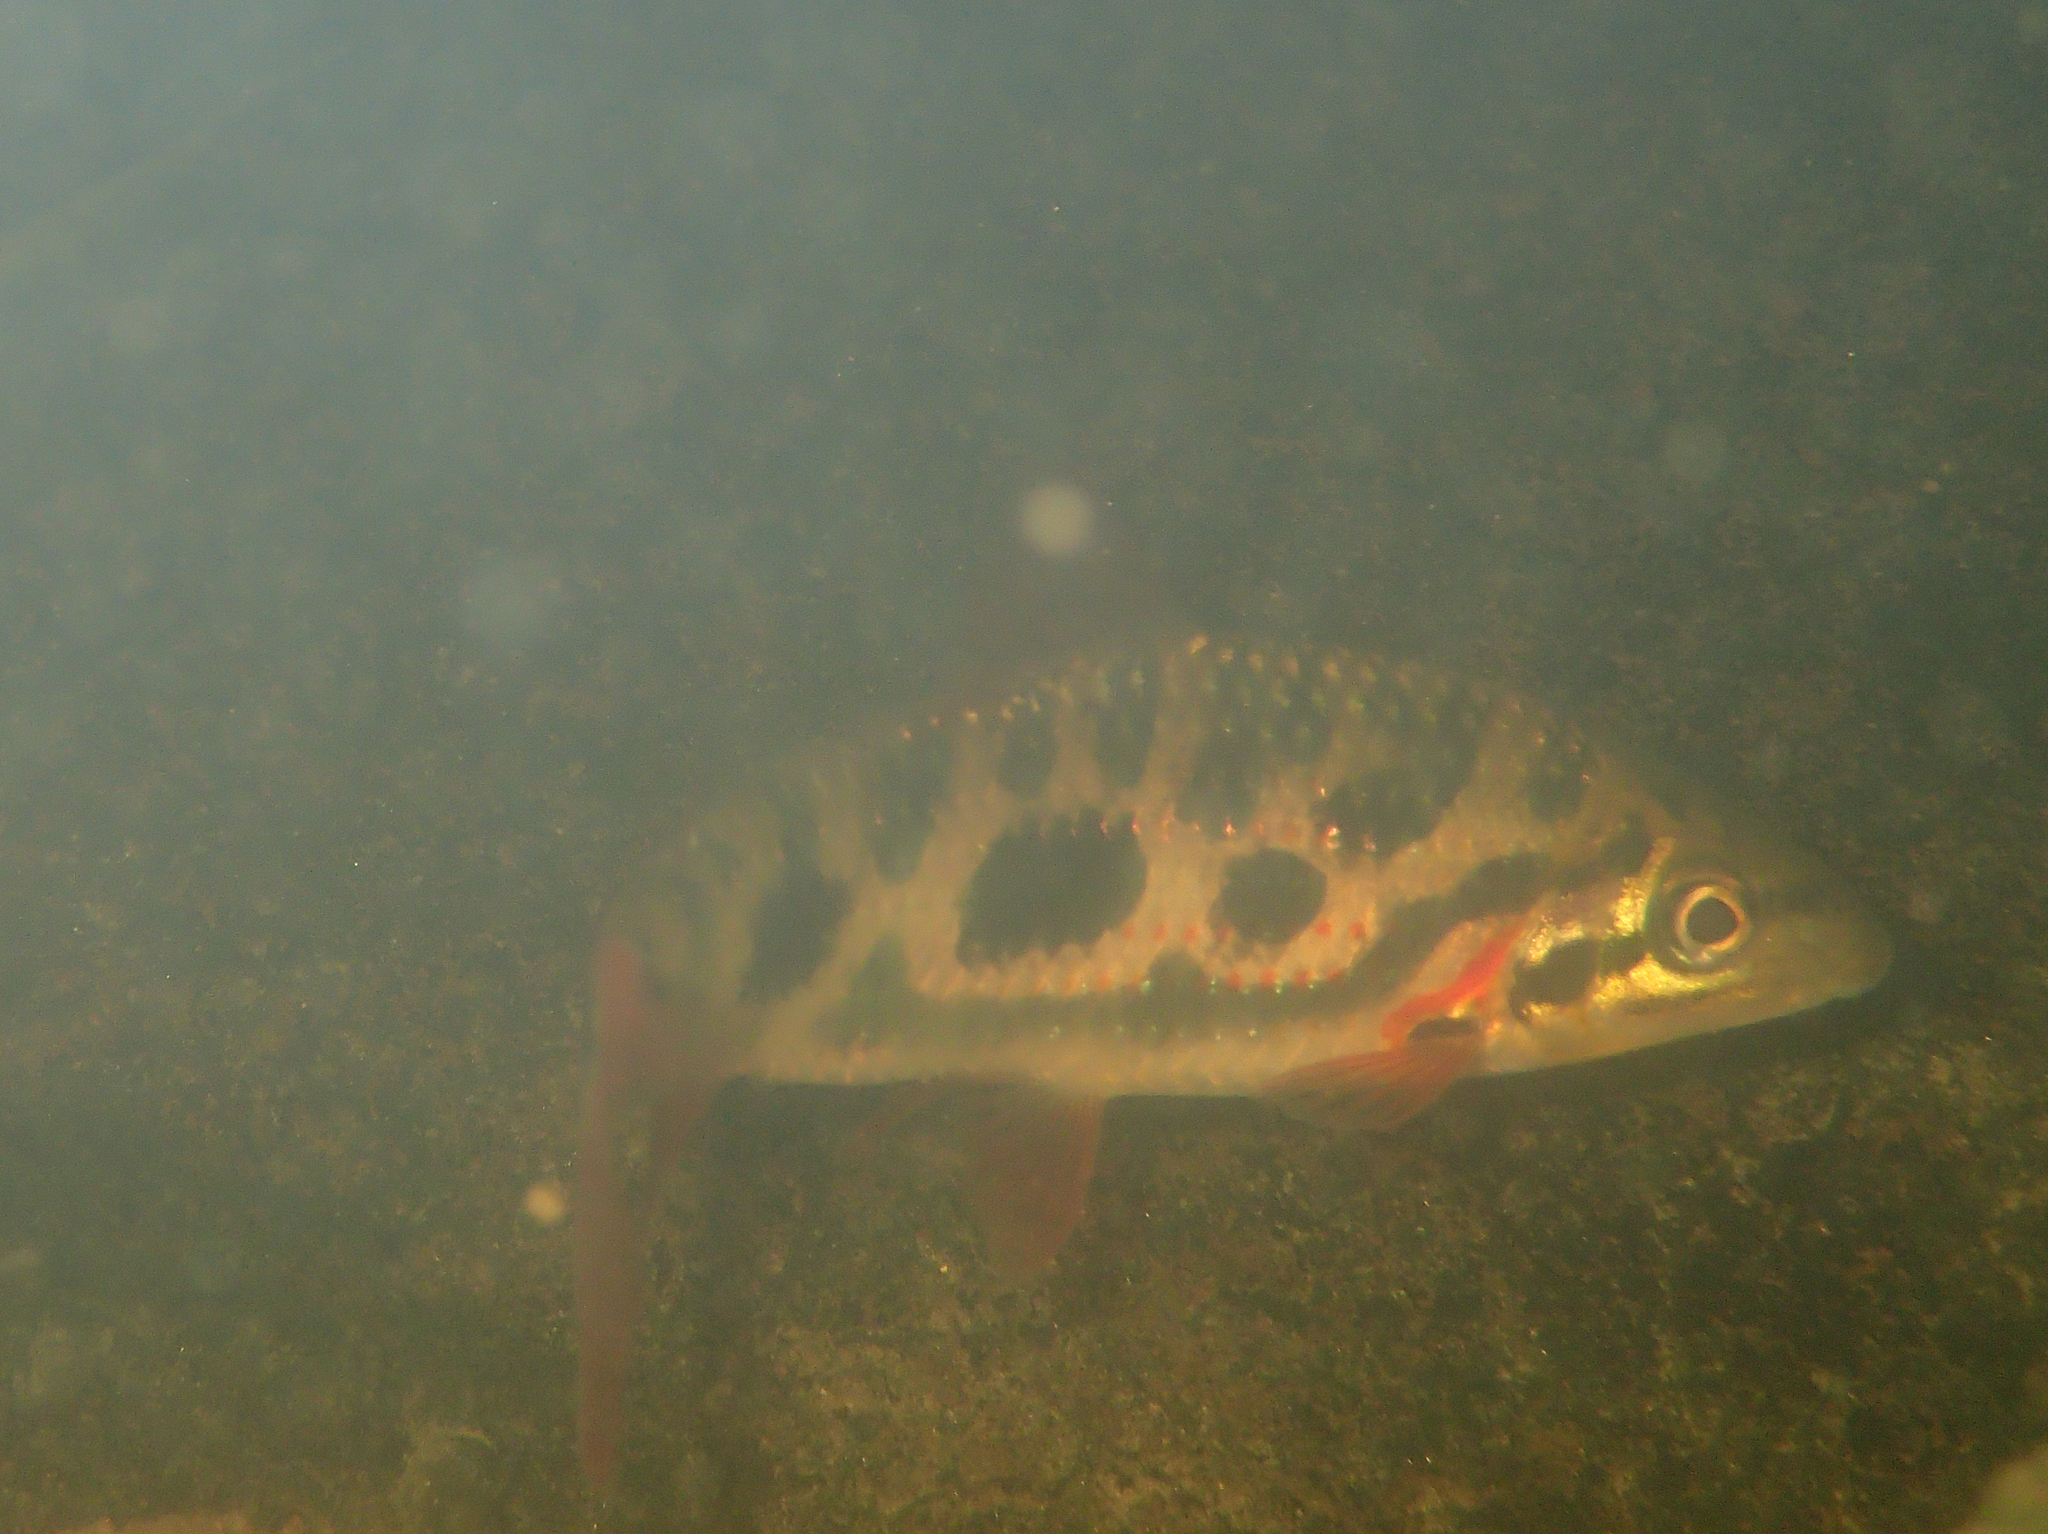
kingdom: Animalia
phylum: Chordata
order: Characiformes
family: Anostomidae
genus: Leporinus
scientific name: Leporinus granti
